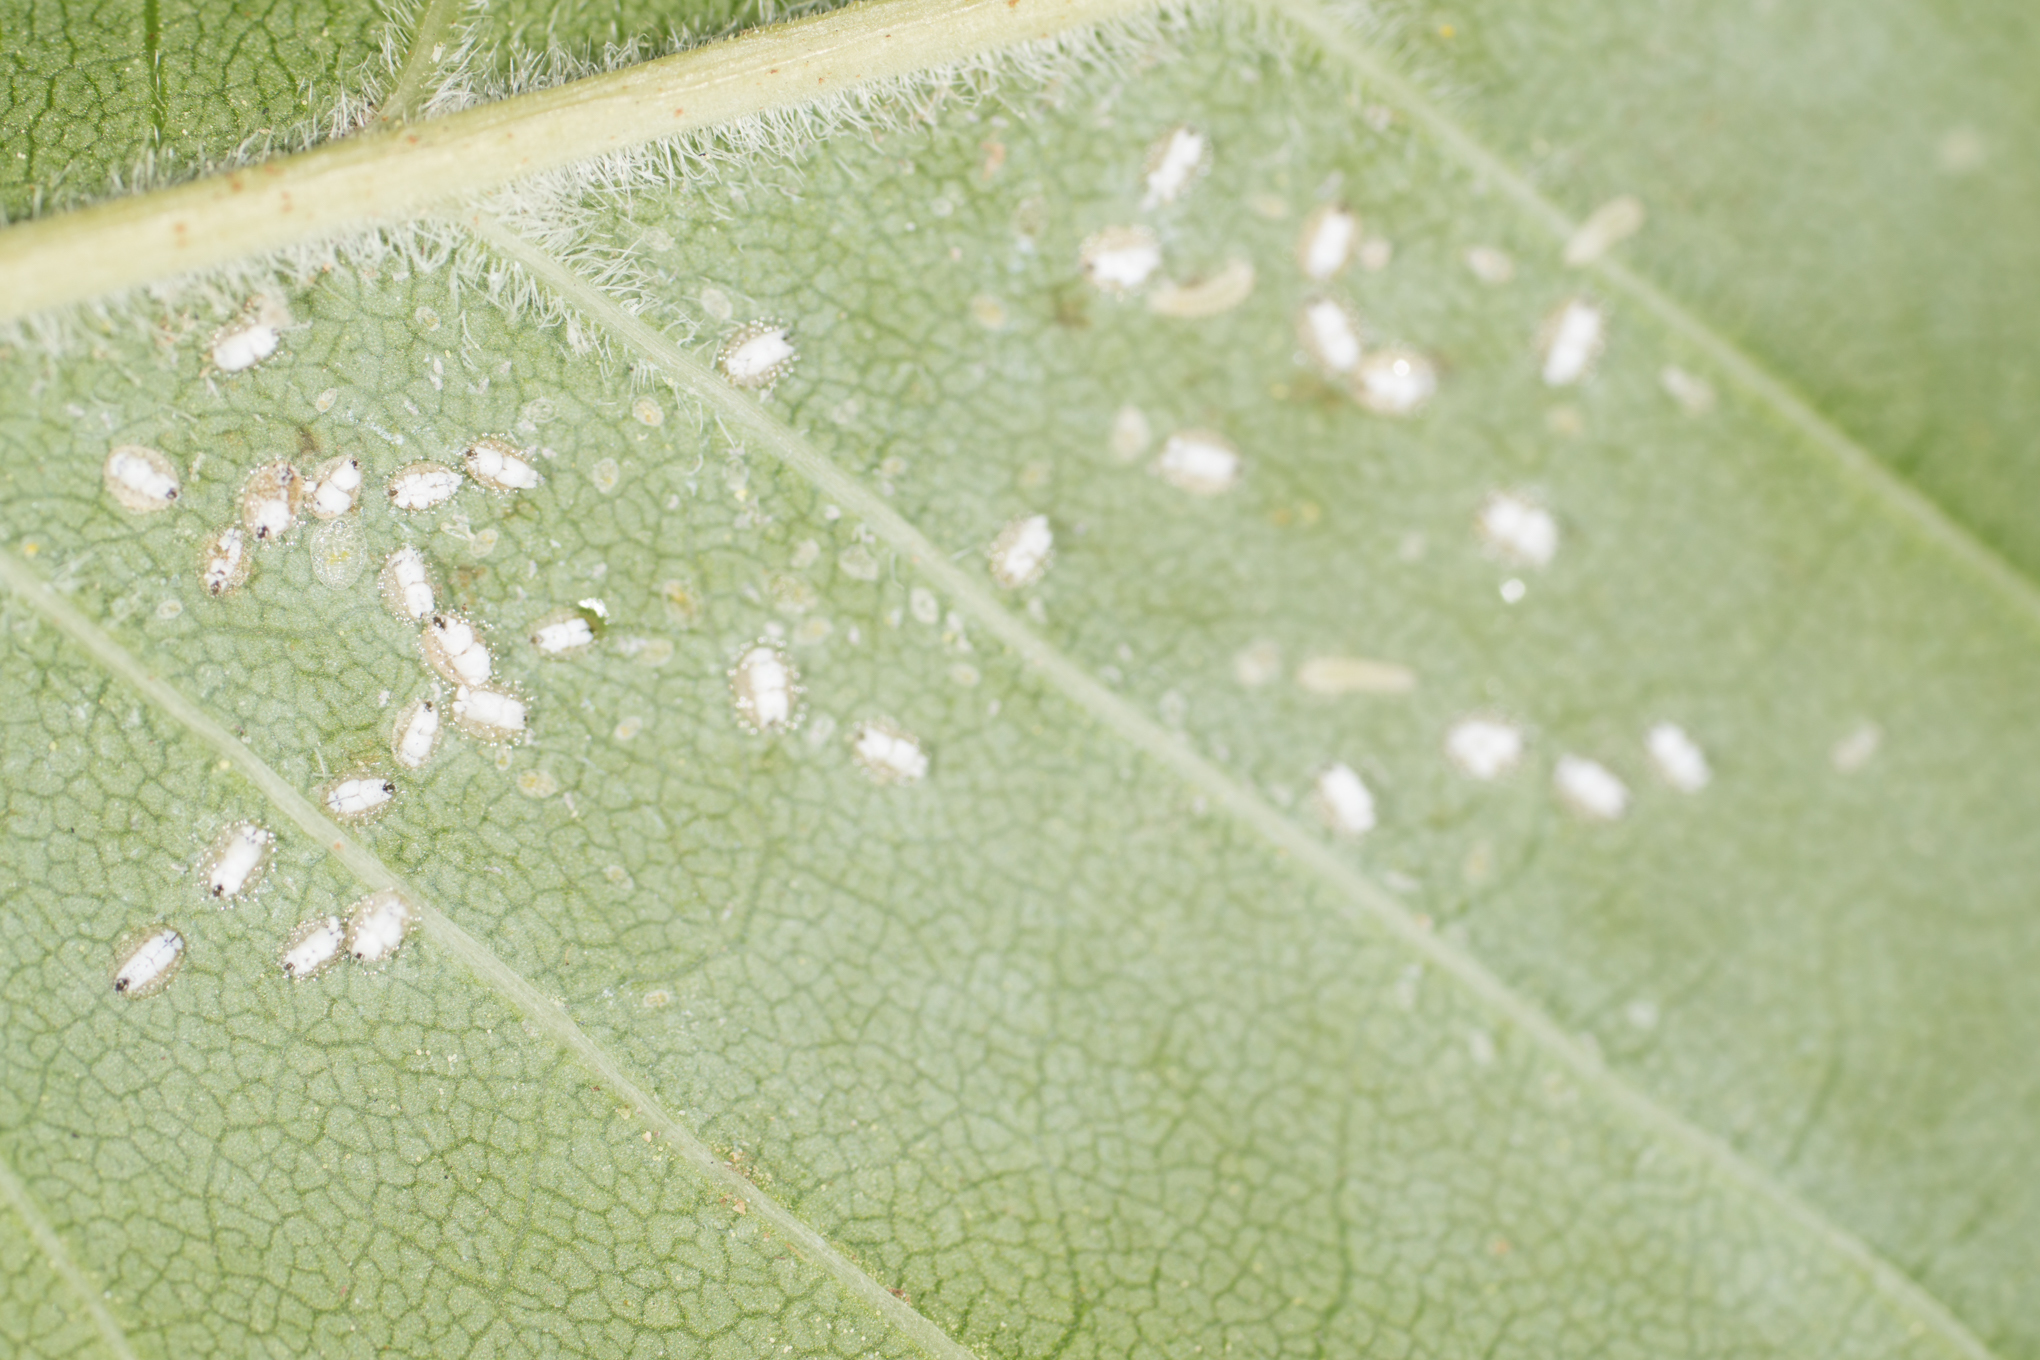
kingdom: Animalia
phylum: Arthropoda
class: Insecta
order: Hemiptera
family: Aleyrodidae
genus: Siphoninus
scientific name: Siphoninus phillyreae
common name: Ash whitefly
